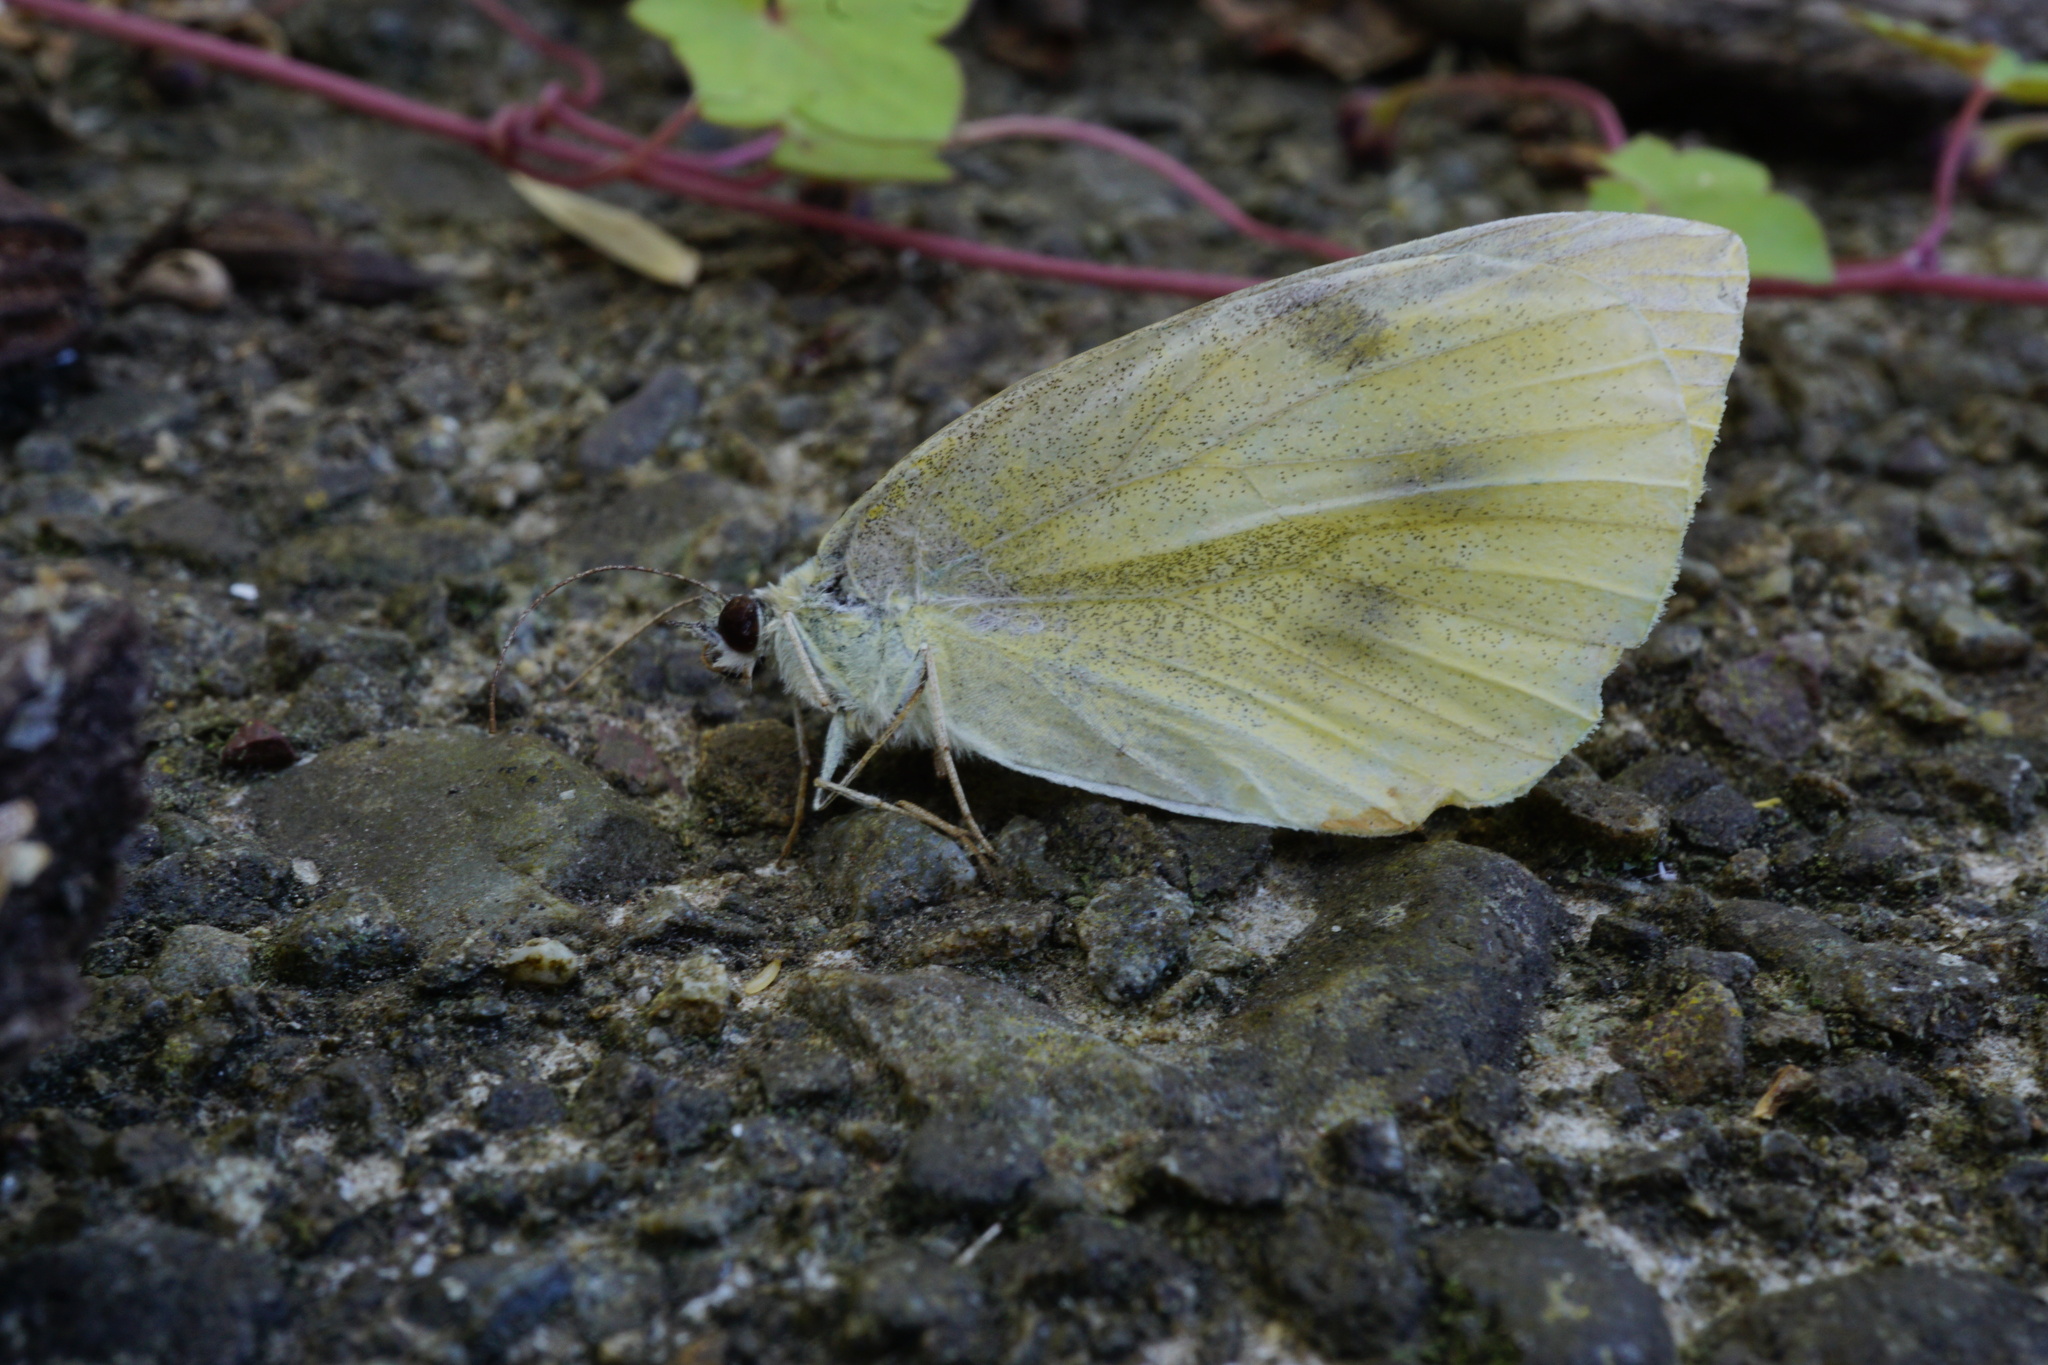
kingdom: Animalia
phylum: Arthropoda
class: Insecta
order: Lepidoptera
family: Pieridae
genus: Pieris
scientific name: Pieris rapae
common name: Small white
